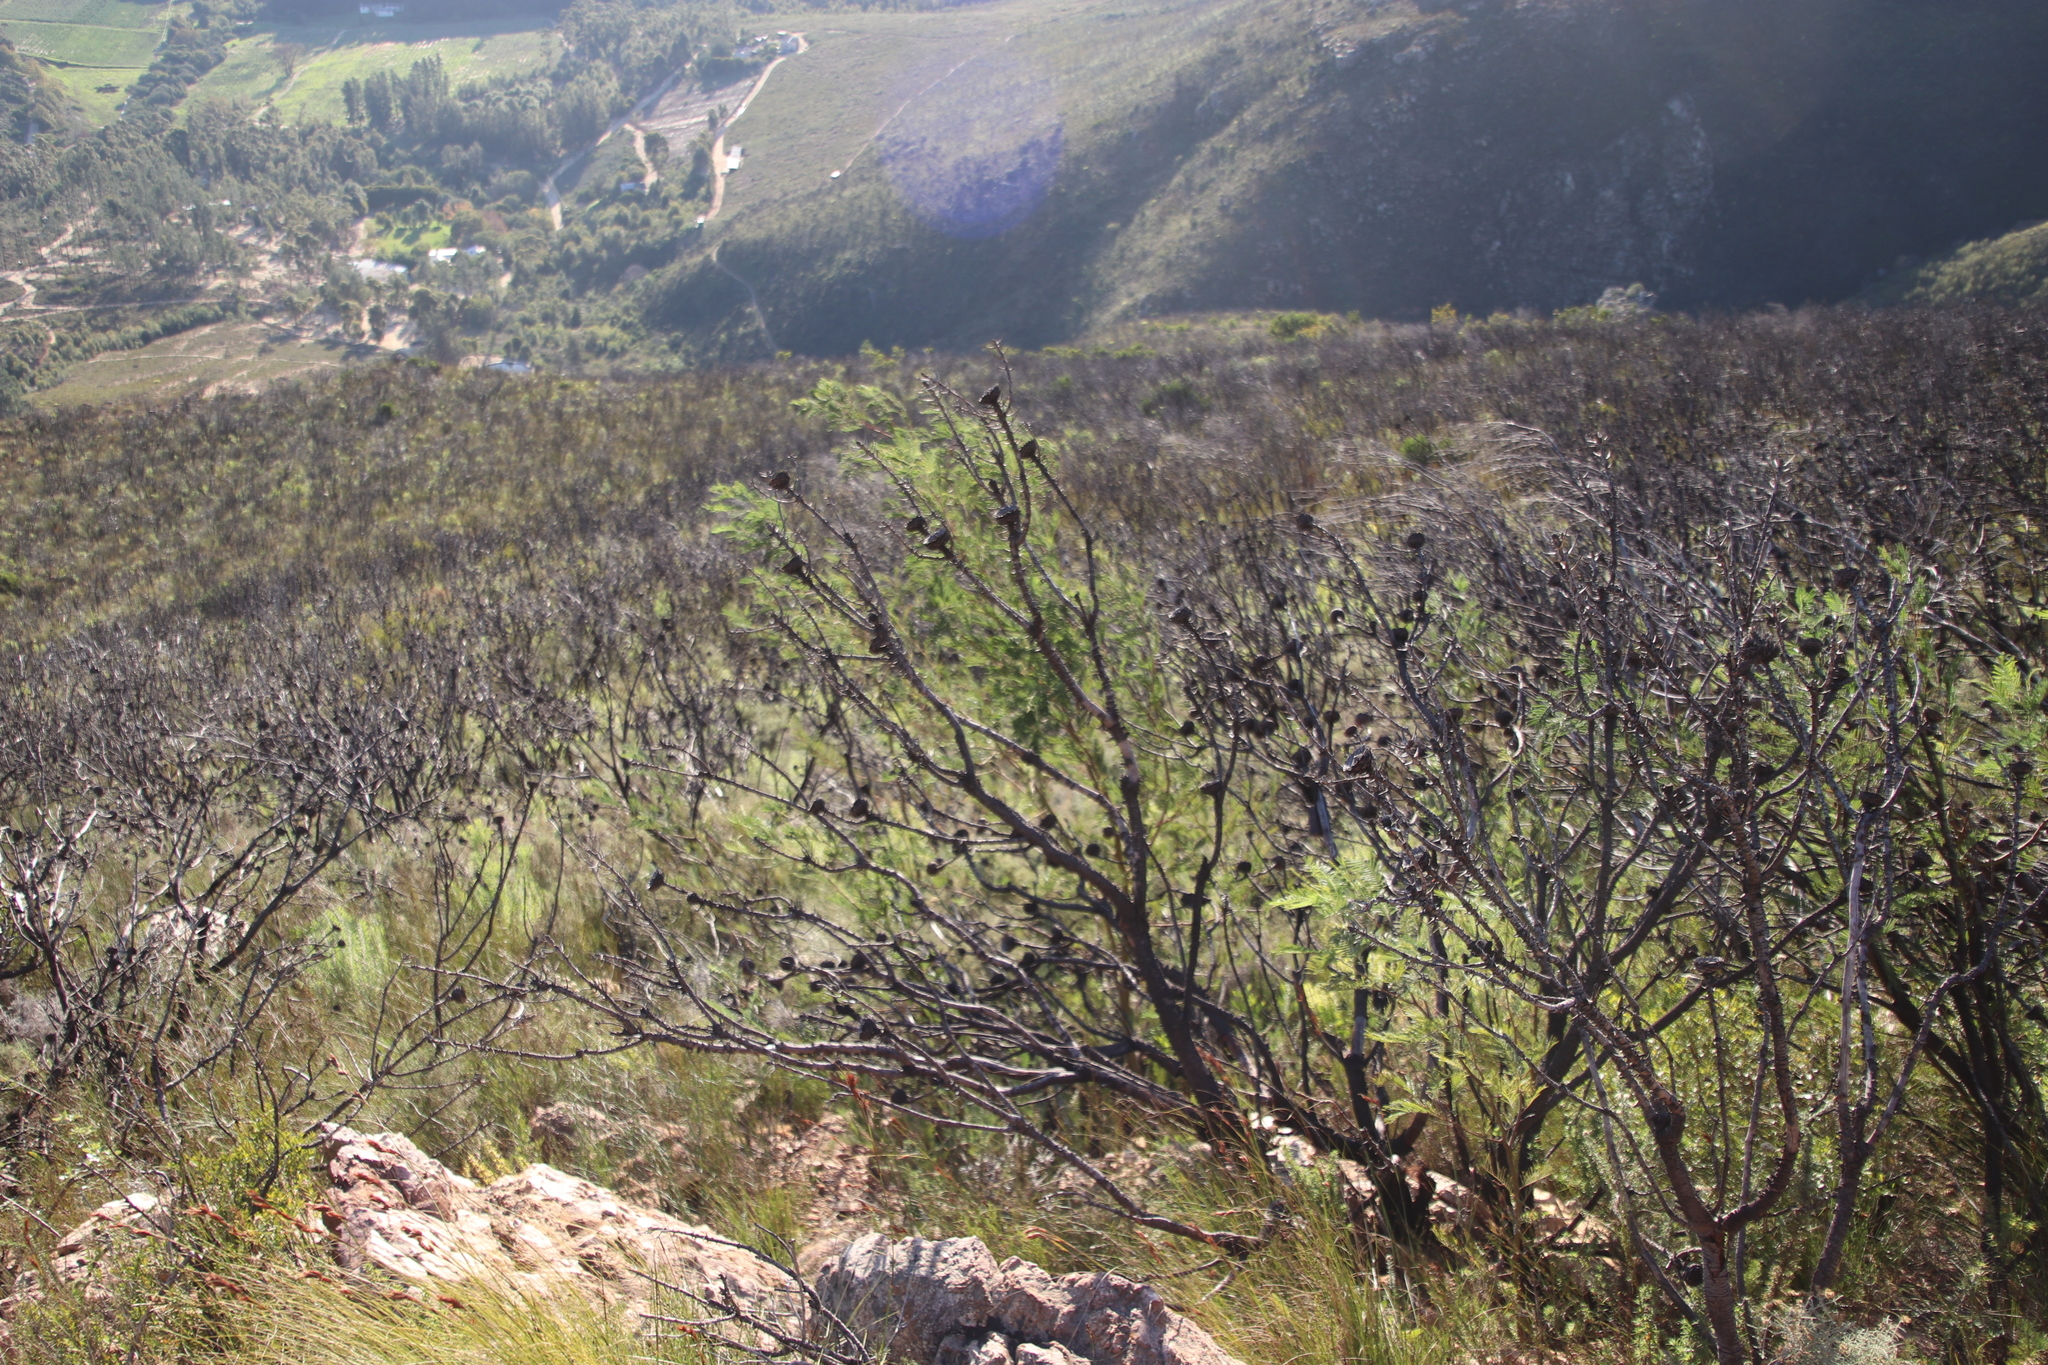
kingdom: Plantae
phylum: Tracheophyta
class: Magnoliopsida
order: Fabales
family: Fabaceae
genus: Acacia
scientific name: Acacia mearnsii
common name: Black wattle
